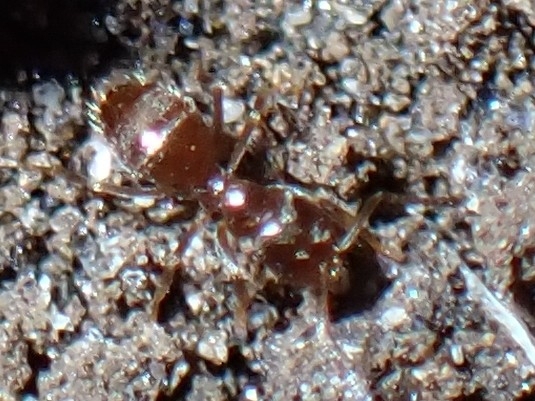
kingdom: Animalia
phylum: Arthropoda
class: Insecta
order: Hymenoptera
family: Formicidae
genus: Brachymyrmex
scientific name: Brachymyrmex cordemoyi
